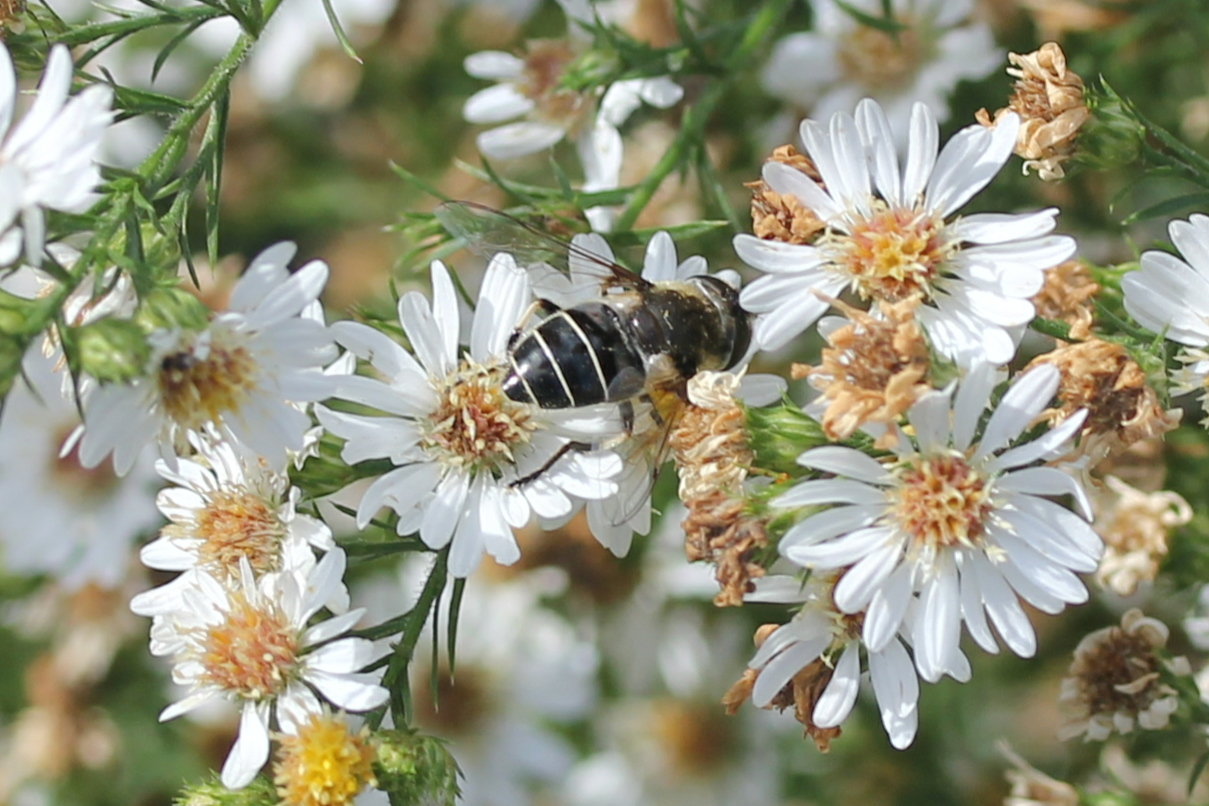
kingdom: Animalia
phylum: Arthropoda
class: Insecta
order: Diptera
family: Syrphidae
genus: Eristalis
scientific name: Eristalis dimidiata
